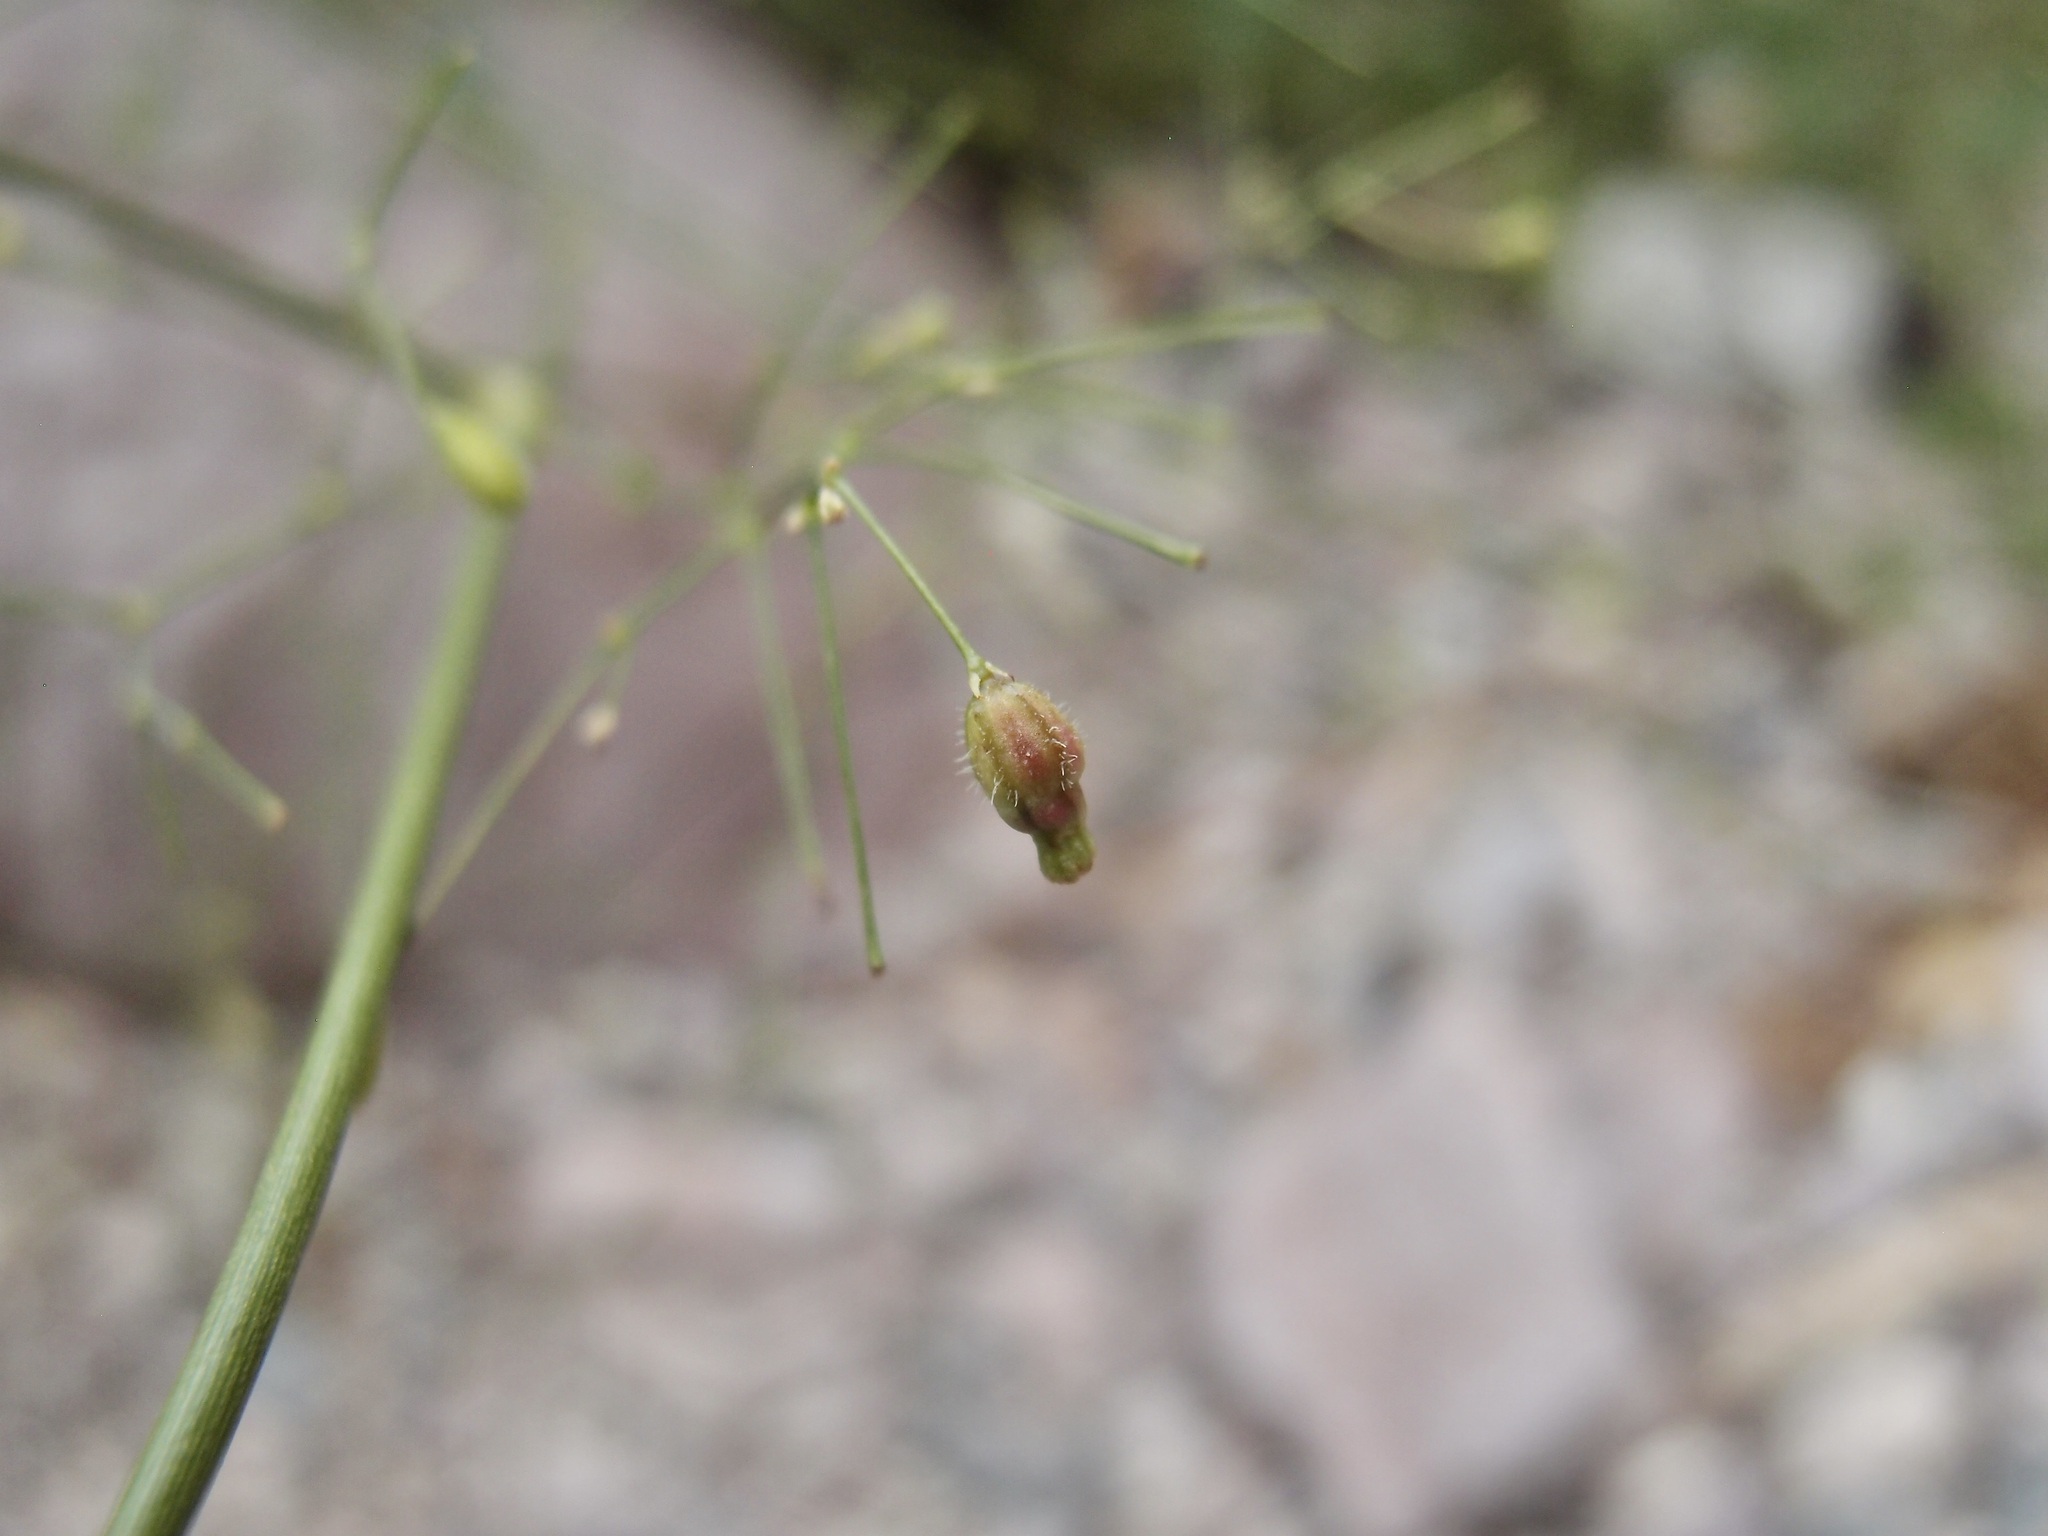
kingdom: Plantae
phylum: Tracheophyta
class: Magnoliopsida
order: Caryophyllales
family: Nyctaginaceae
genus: Boerhavia
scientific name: Boerhavia gracillima
